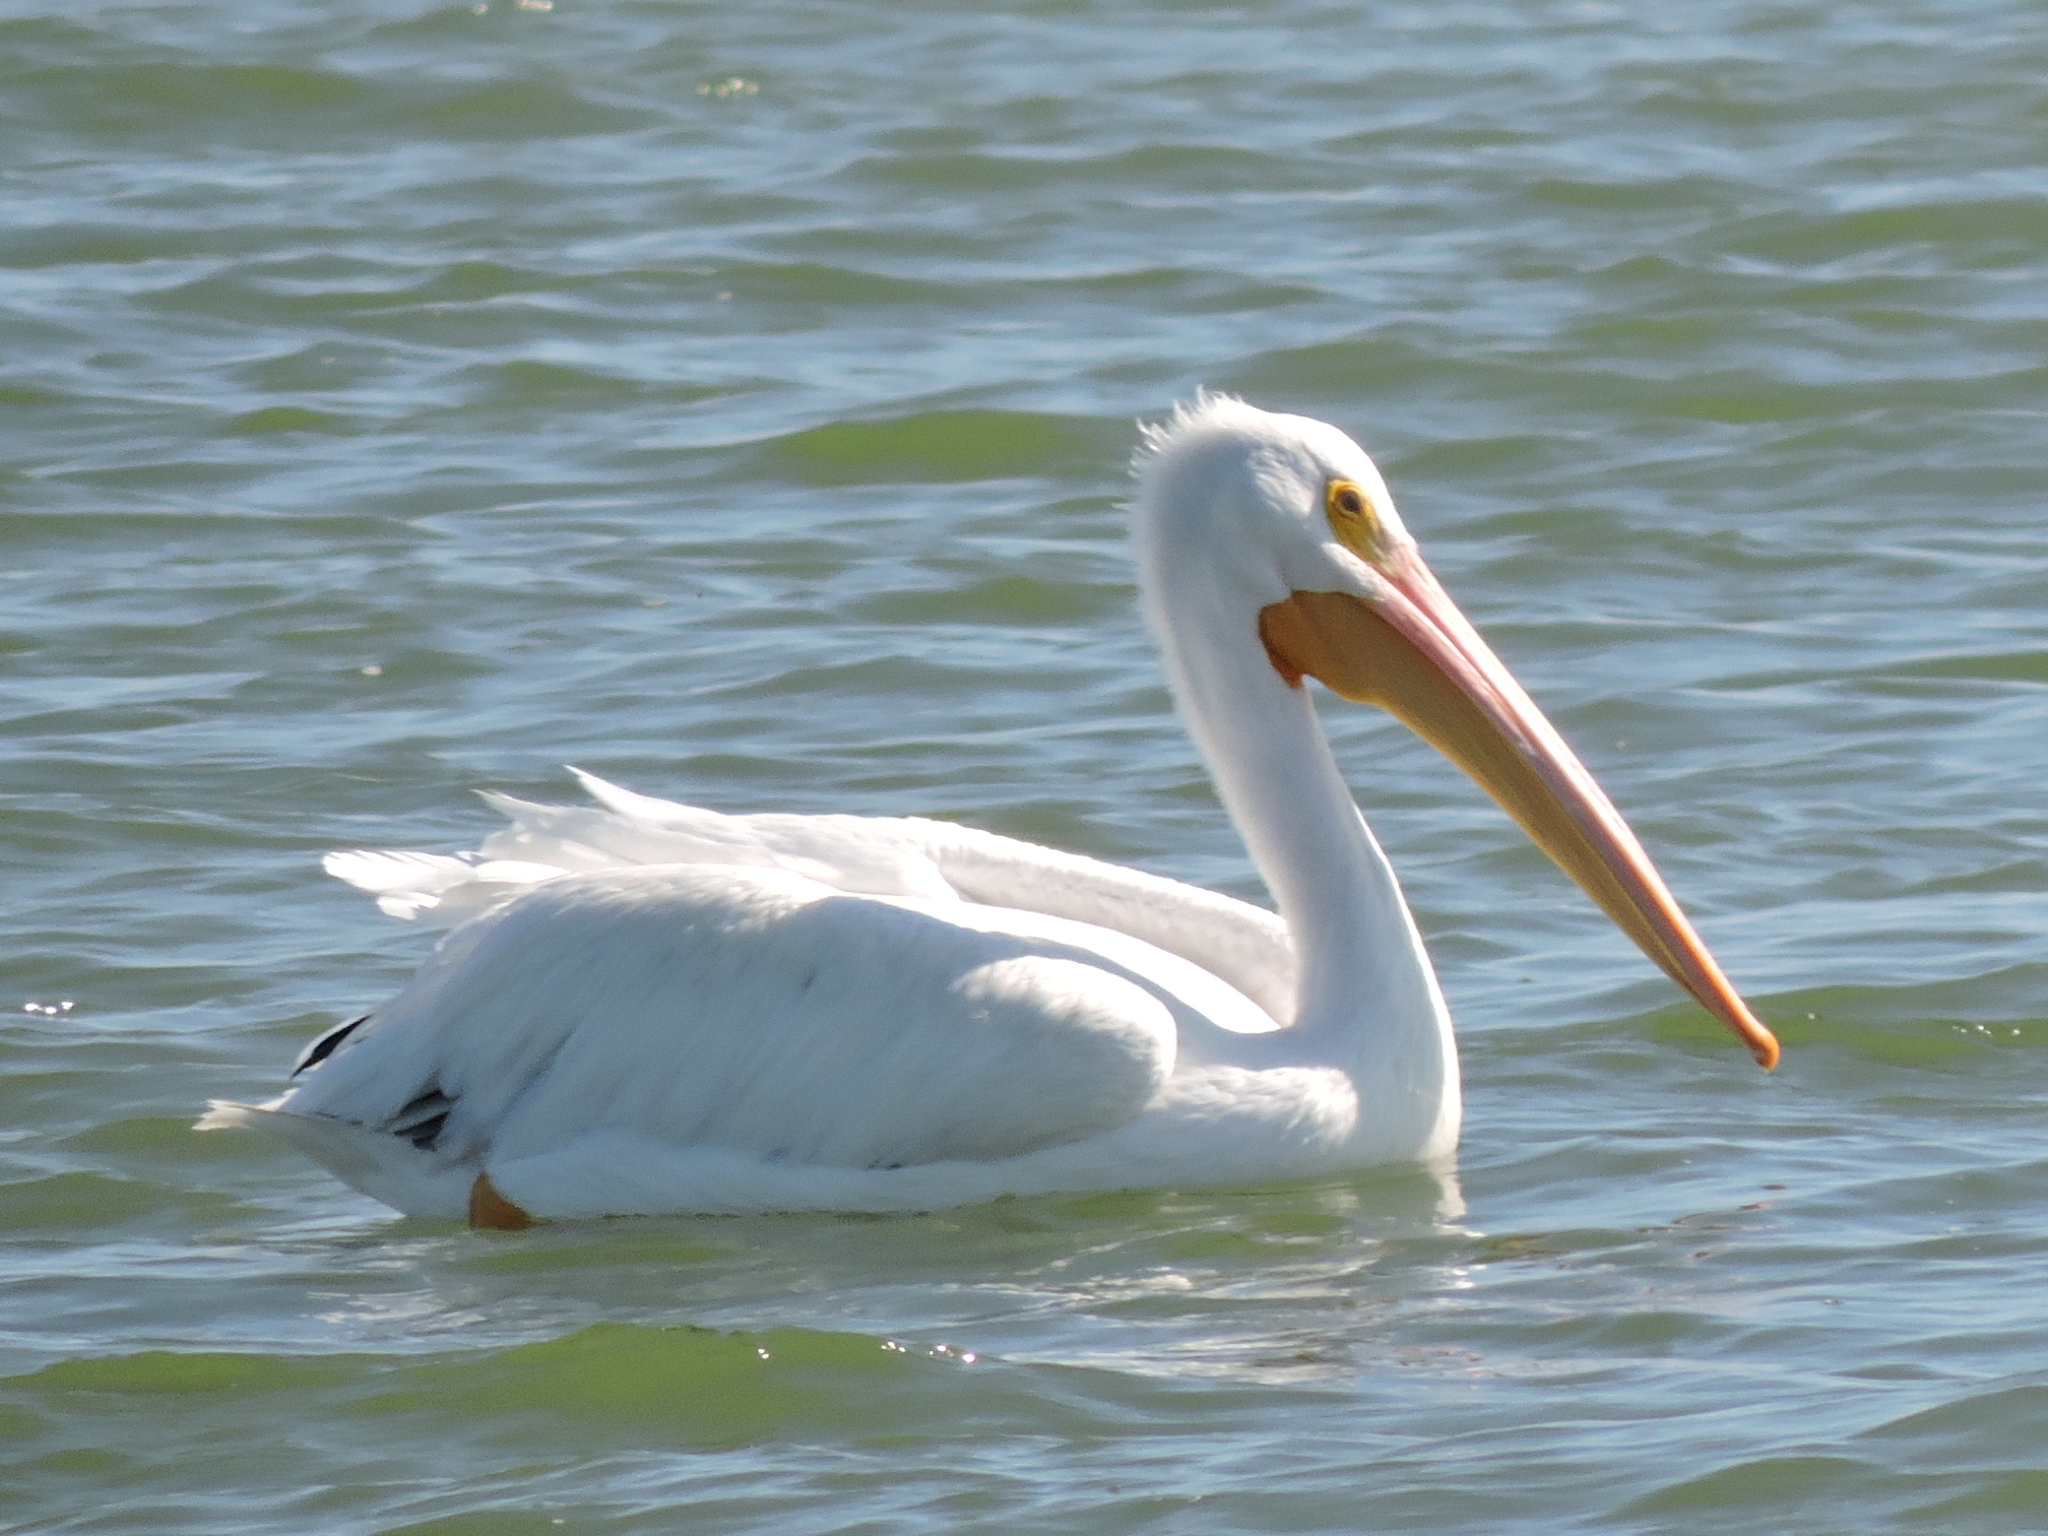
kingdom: Animalia
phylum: Chordata
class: Aves
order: Pelecaniformes
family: Pelecanidae
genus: Pelecanus
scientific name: Pelecanus erythrorhynchos
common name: American white pelican
